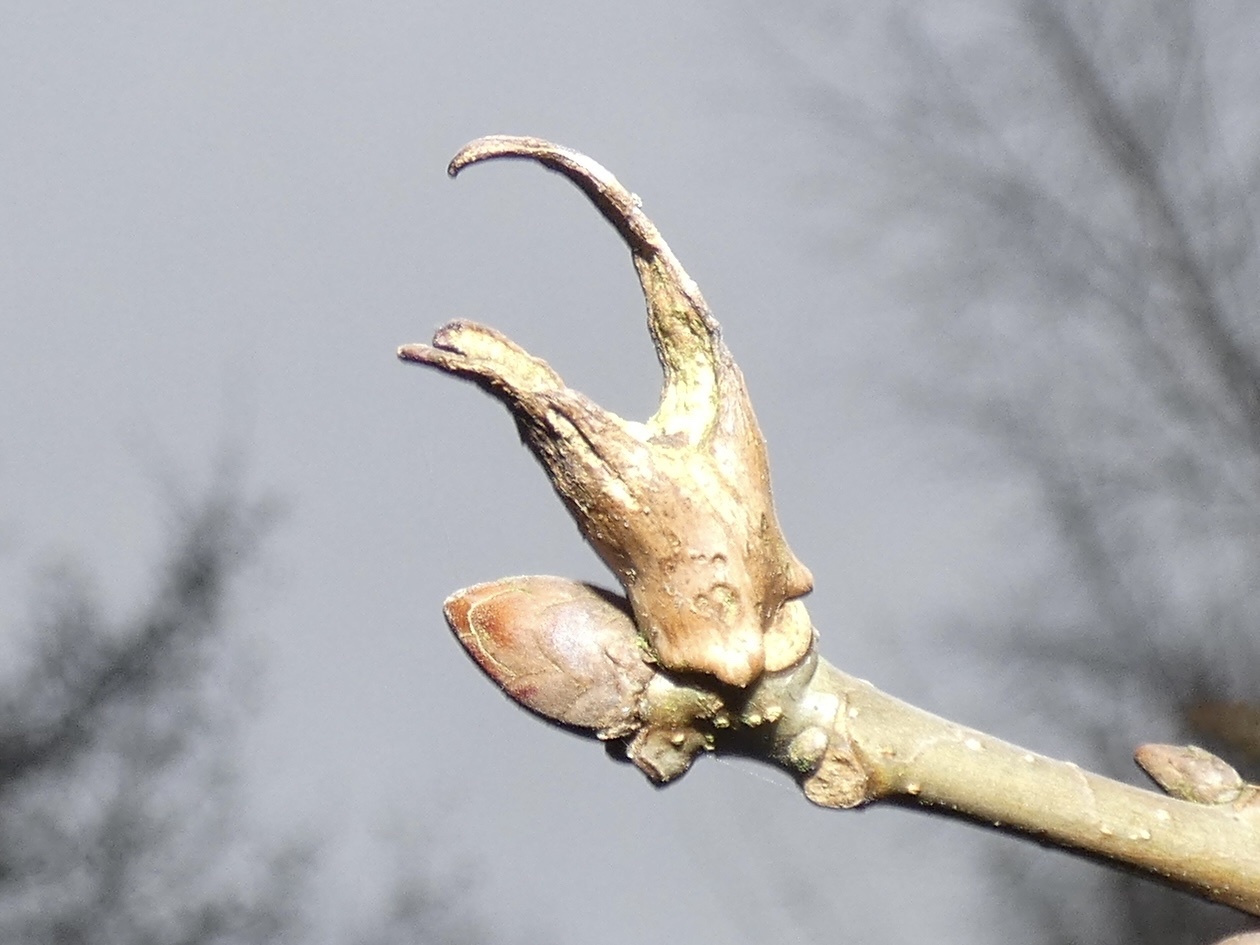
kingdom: Animalia
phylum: Arthropoda
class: Insecta
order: Hymenoptera
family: Cynipidae
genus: Andricus
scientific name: Andricus aries
